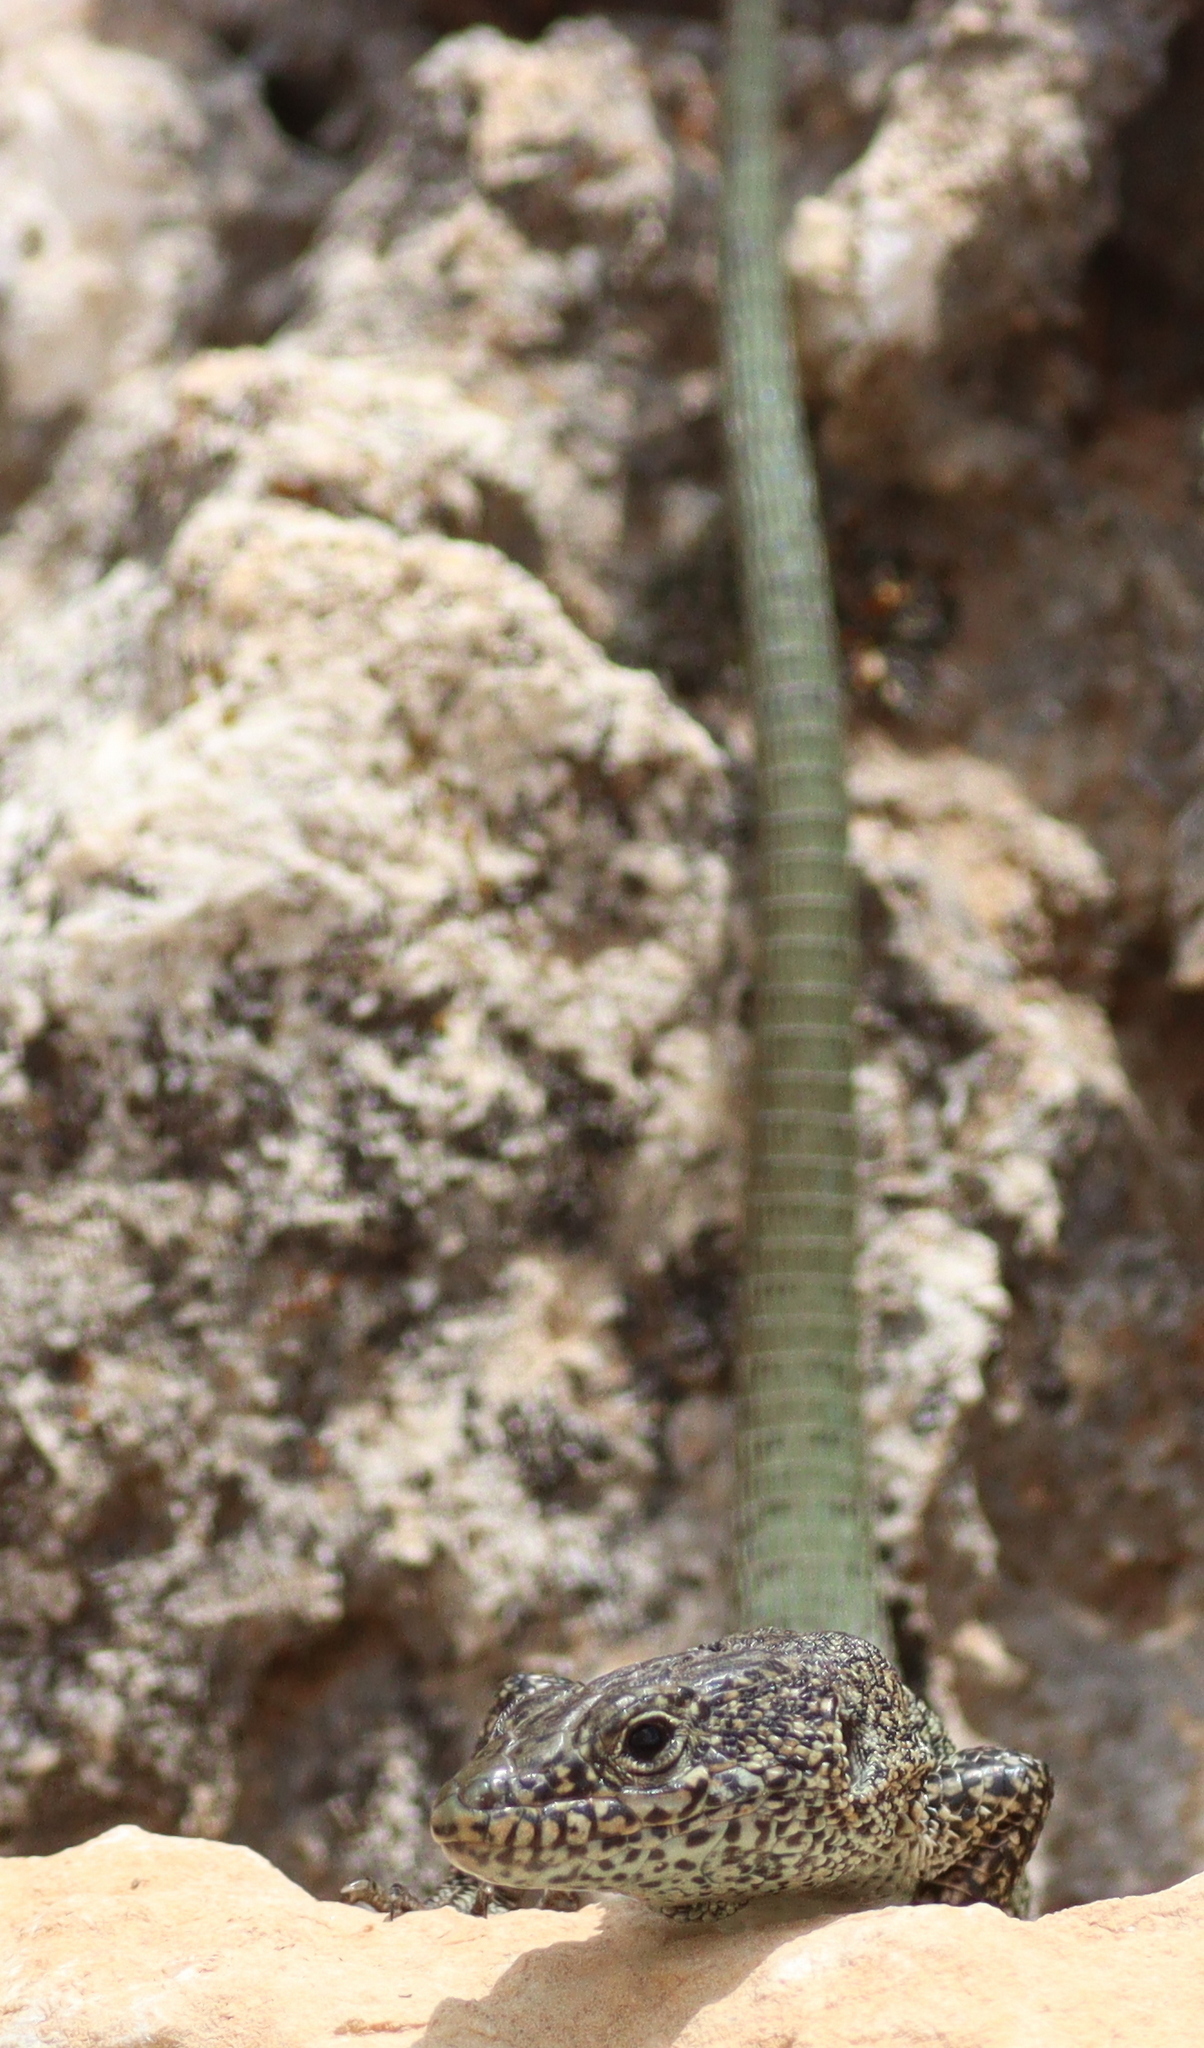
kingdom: Animalia
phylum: Chordata
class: Squamata
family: Lacertidae
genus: Anatololacerta
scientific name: Anatololacerta danfordi
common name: Danford's lizard
